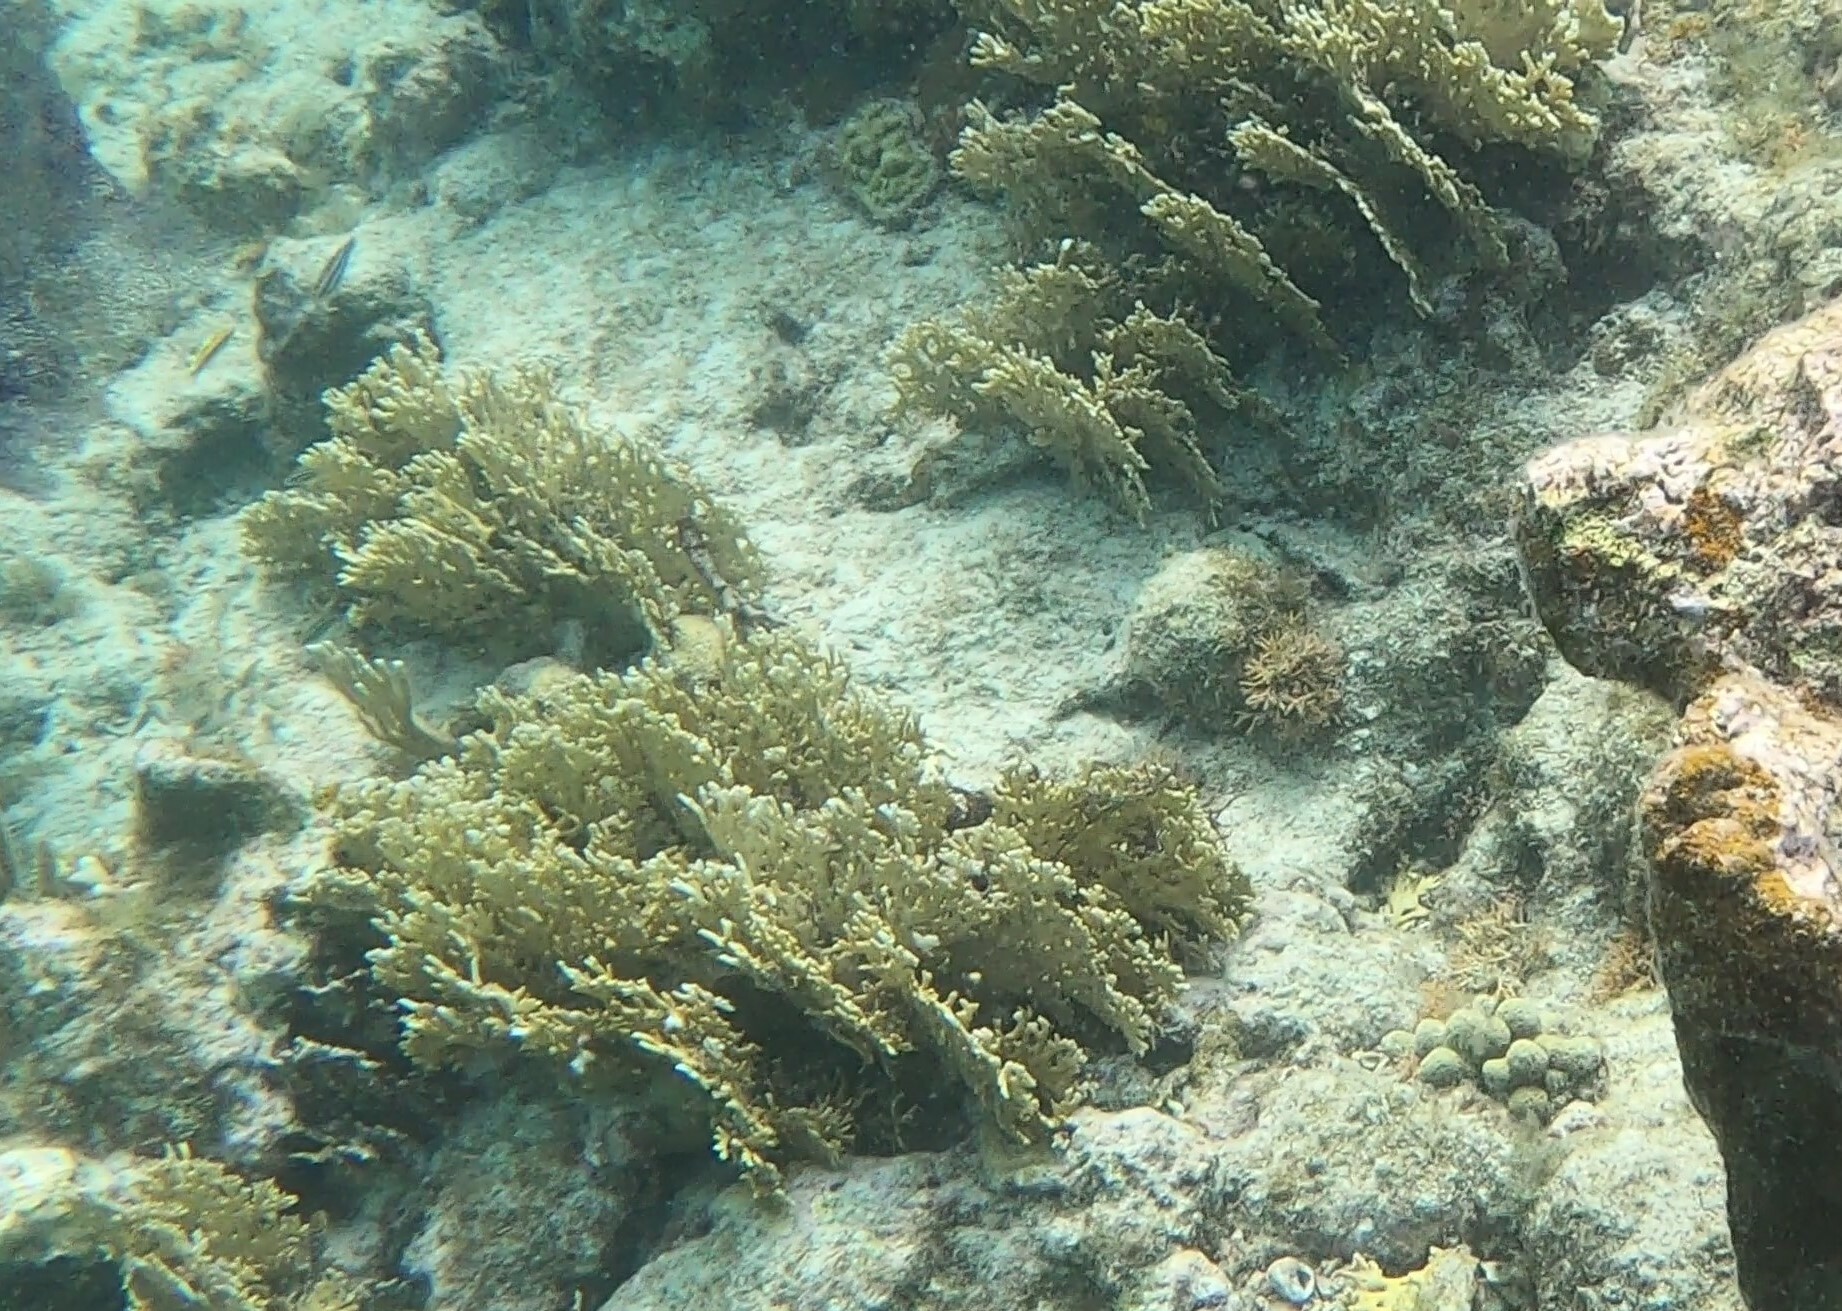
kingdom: Animalia
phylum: Cnidaria
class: Hydrozoa
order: Anthoathecata
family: Milleporidae
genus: Millepora
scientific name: Millepora alcicornis
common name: Branching fire coral
